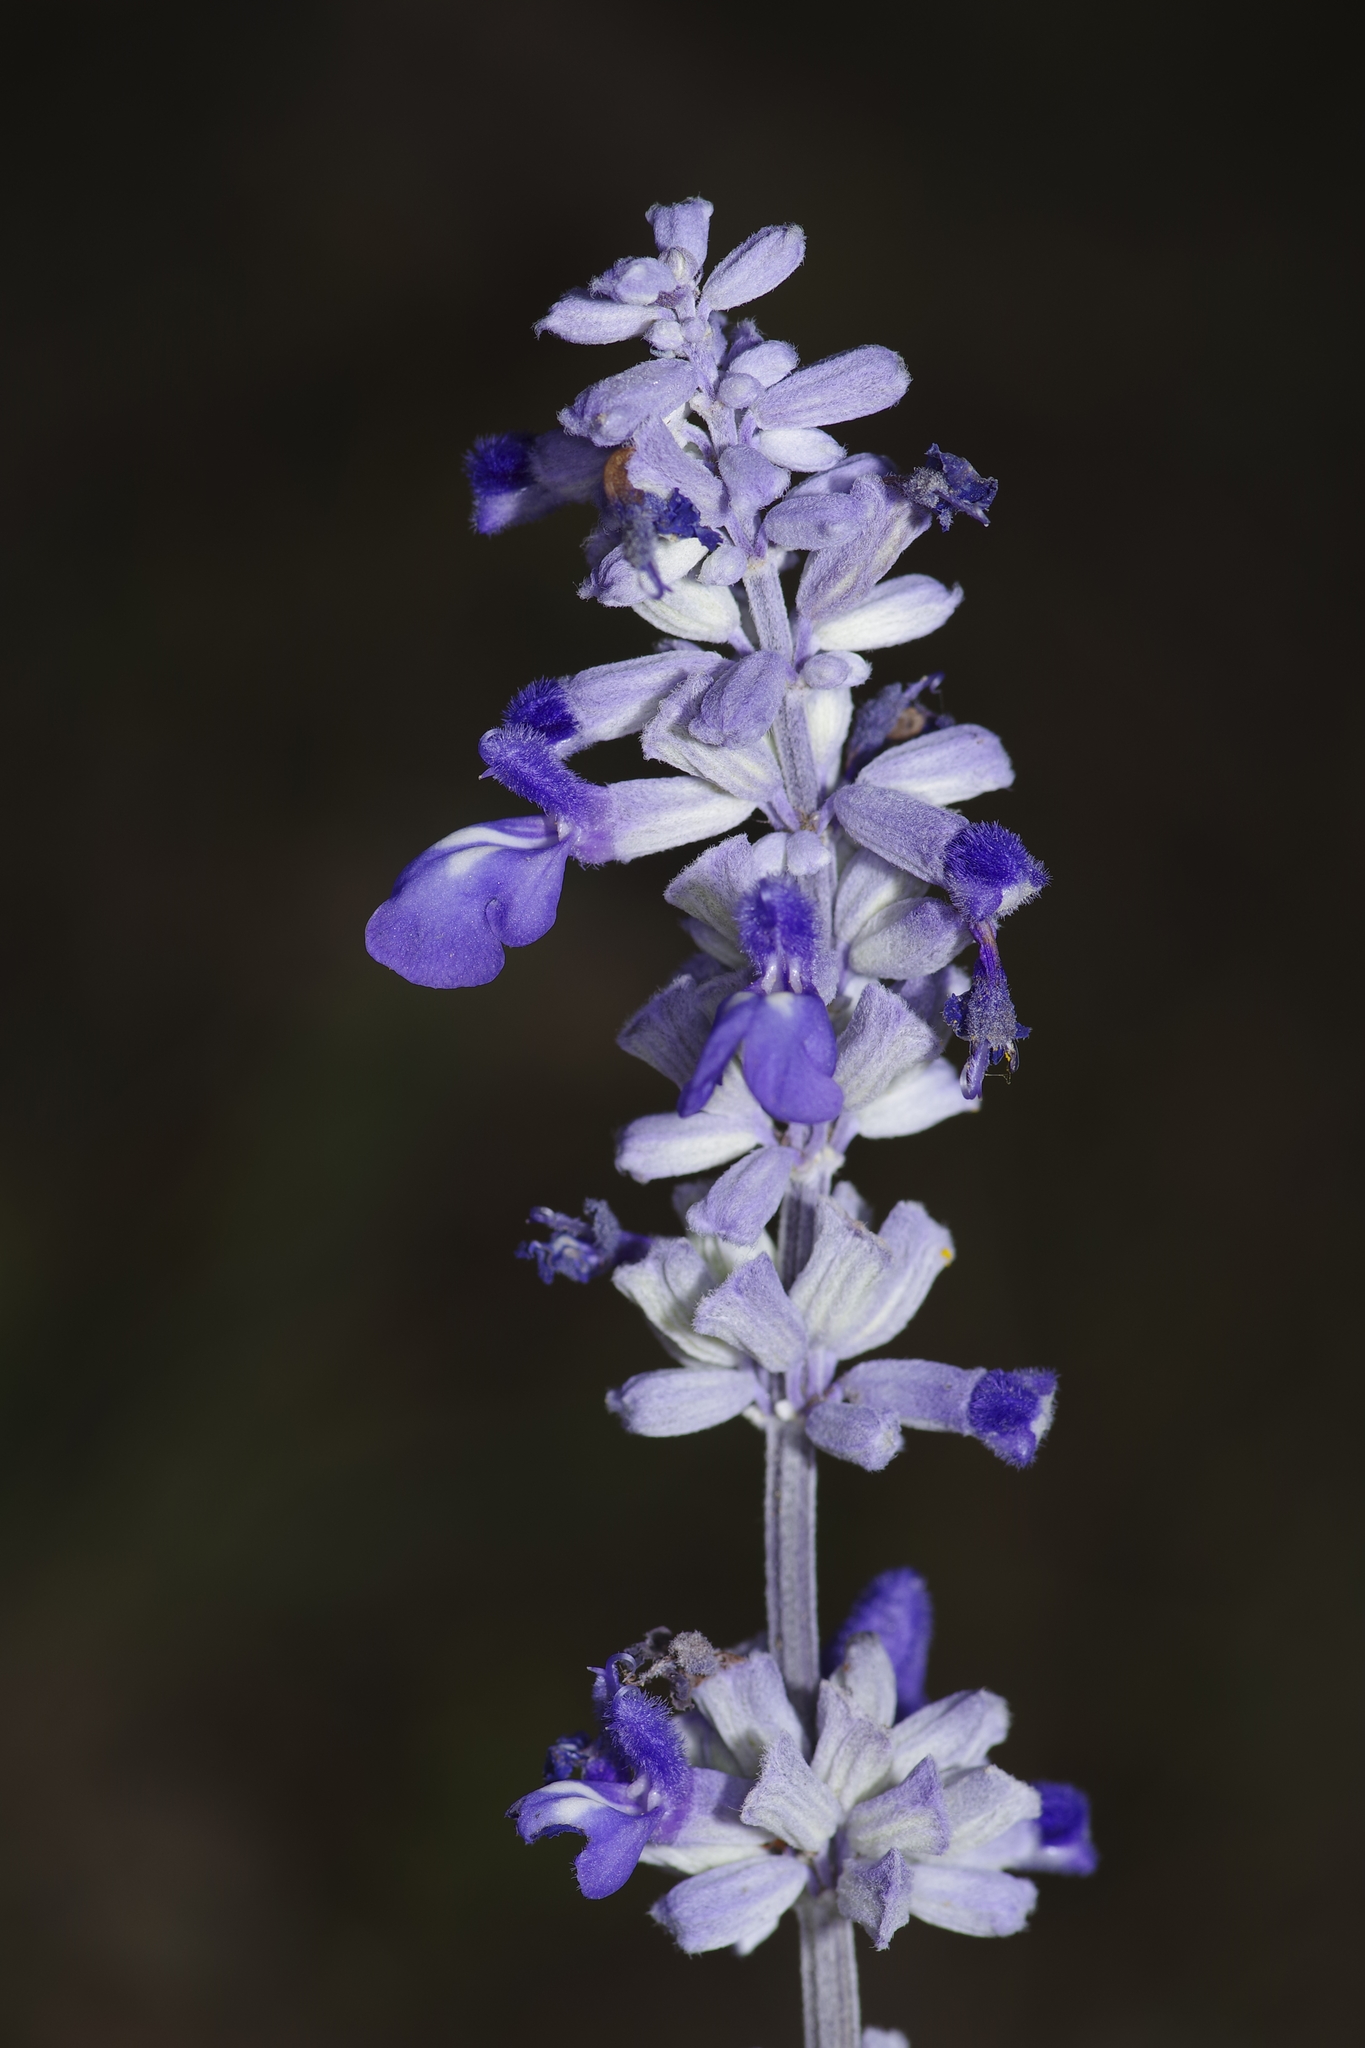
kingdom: Plantae
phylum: Tracheophyta
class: Magnoliopsida
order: Lamiales
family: Lamiaceae
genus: Salvia
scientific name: Salvia farinacea
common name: Mealy sage
